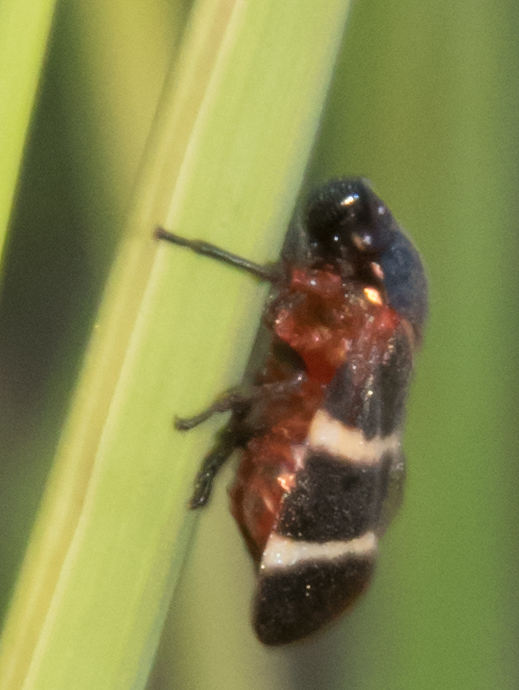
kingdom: Animalia
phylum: Arthropoda
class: Insecta
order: Hemiptera
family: Cercopidae
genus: Aeneolamia
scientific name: Aeneolamia albofasciata
